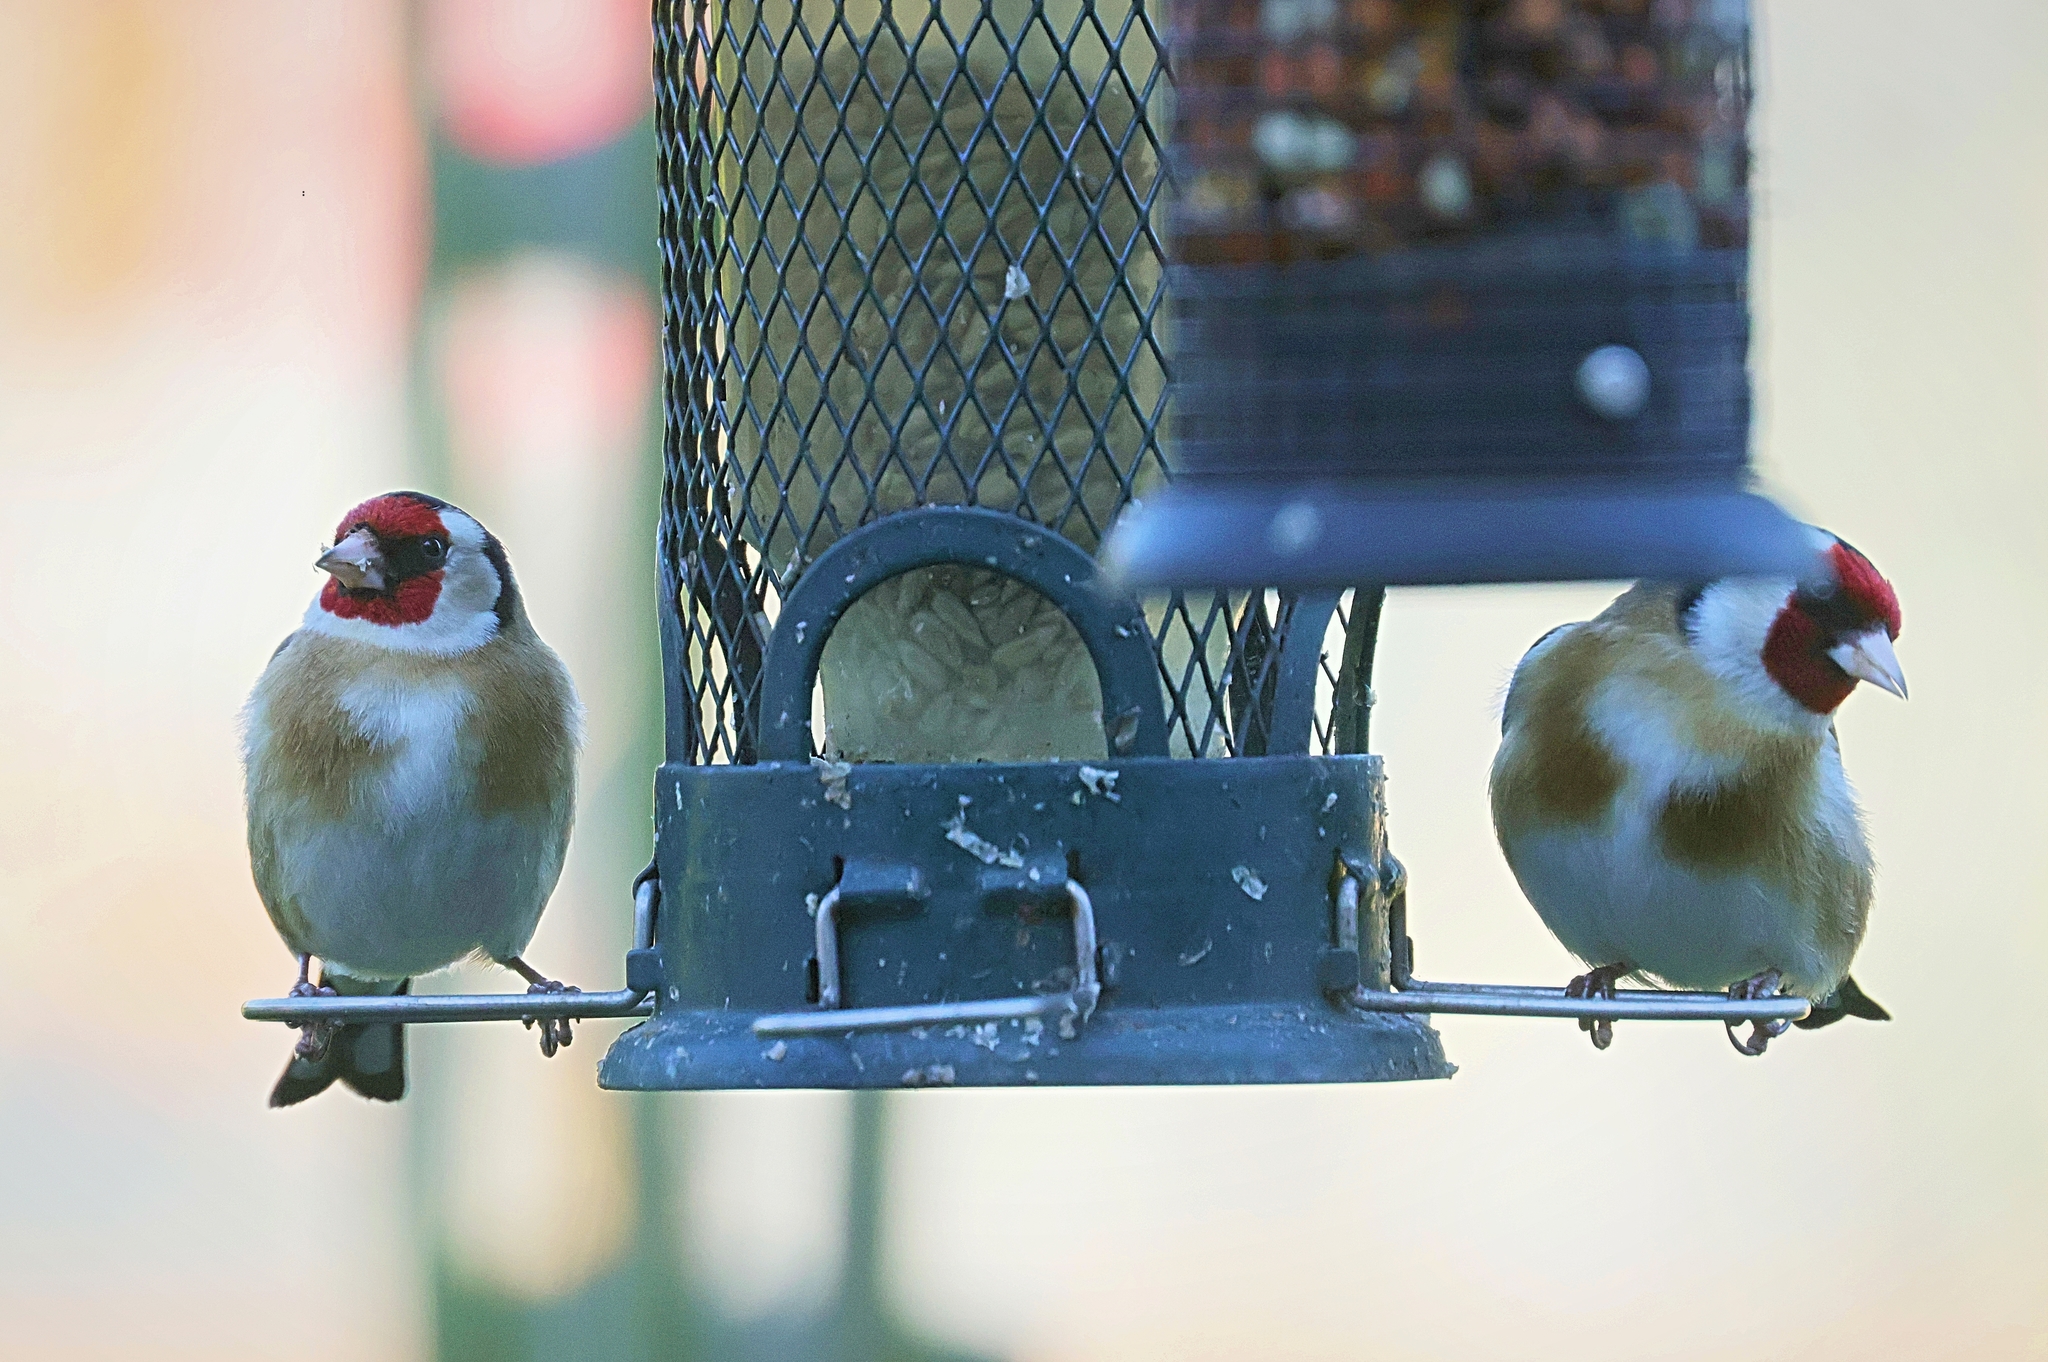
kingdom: Animalia
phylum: Chordata
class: Aves
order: Passeriformes
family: Fringillidae
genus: Carduelis
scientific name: Carduelis carduelis
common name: European goldfinch
